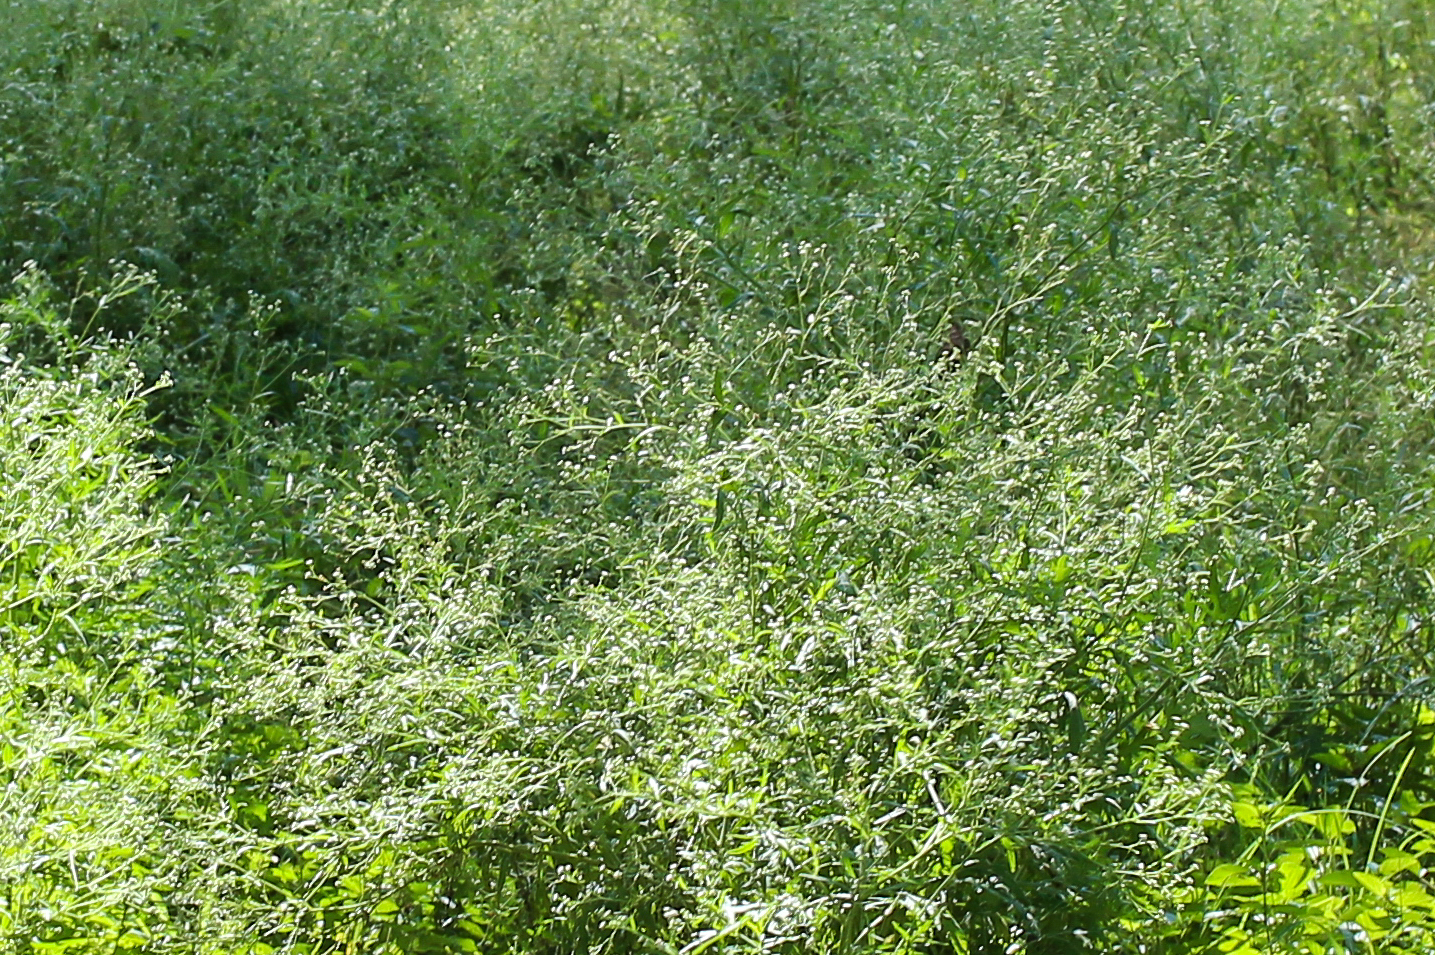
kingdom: Plantae
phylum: Tracheophyta
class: Magnoliopsida
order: Asterales
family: Asteraceae
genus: Parthenium
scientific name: Parthenium hysterophorus
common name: Santa maria feverfew
